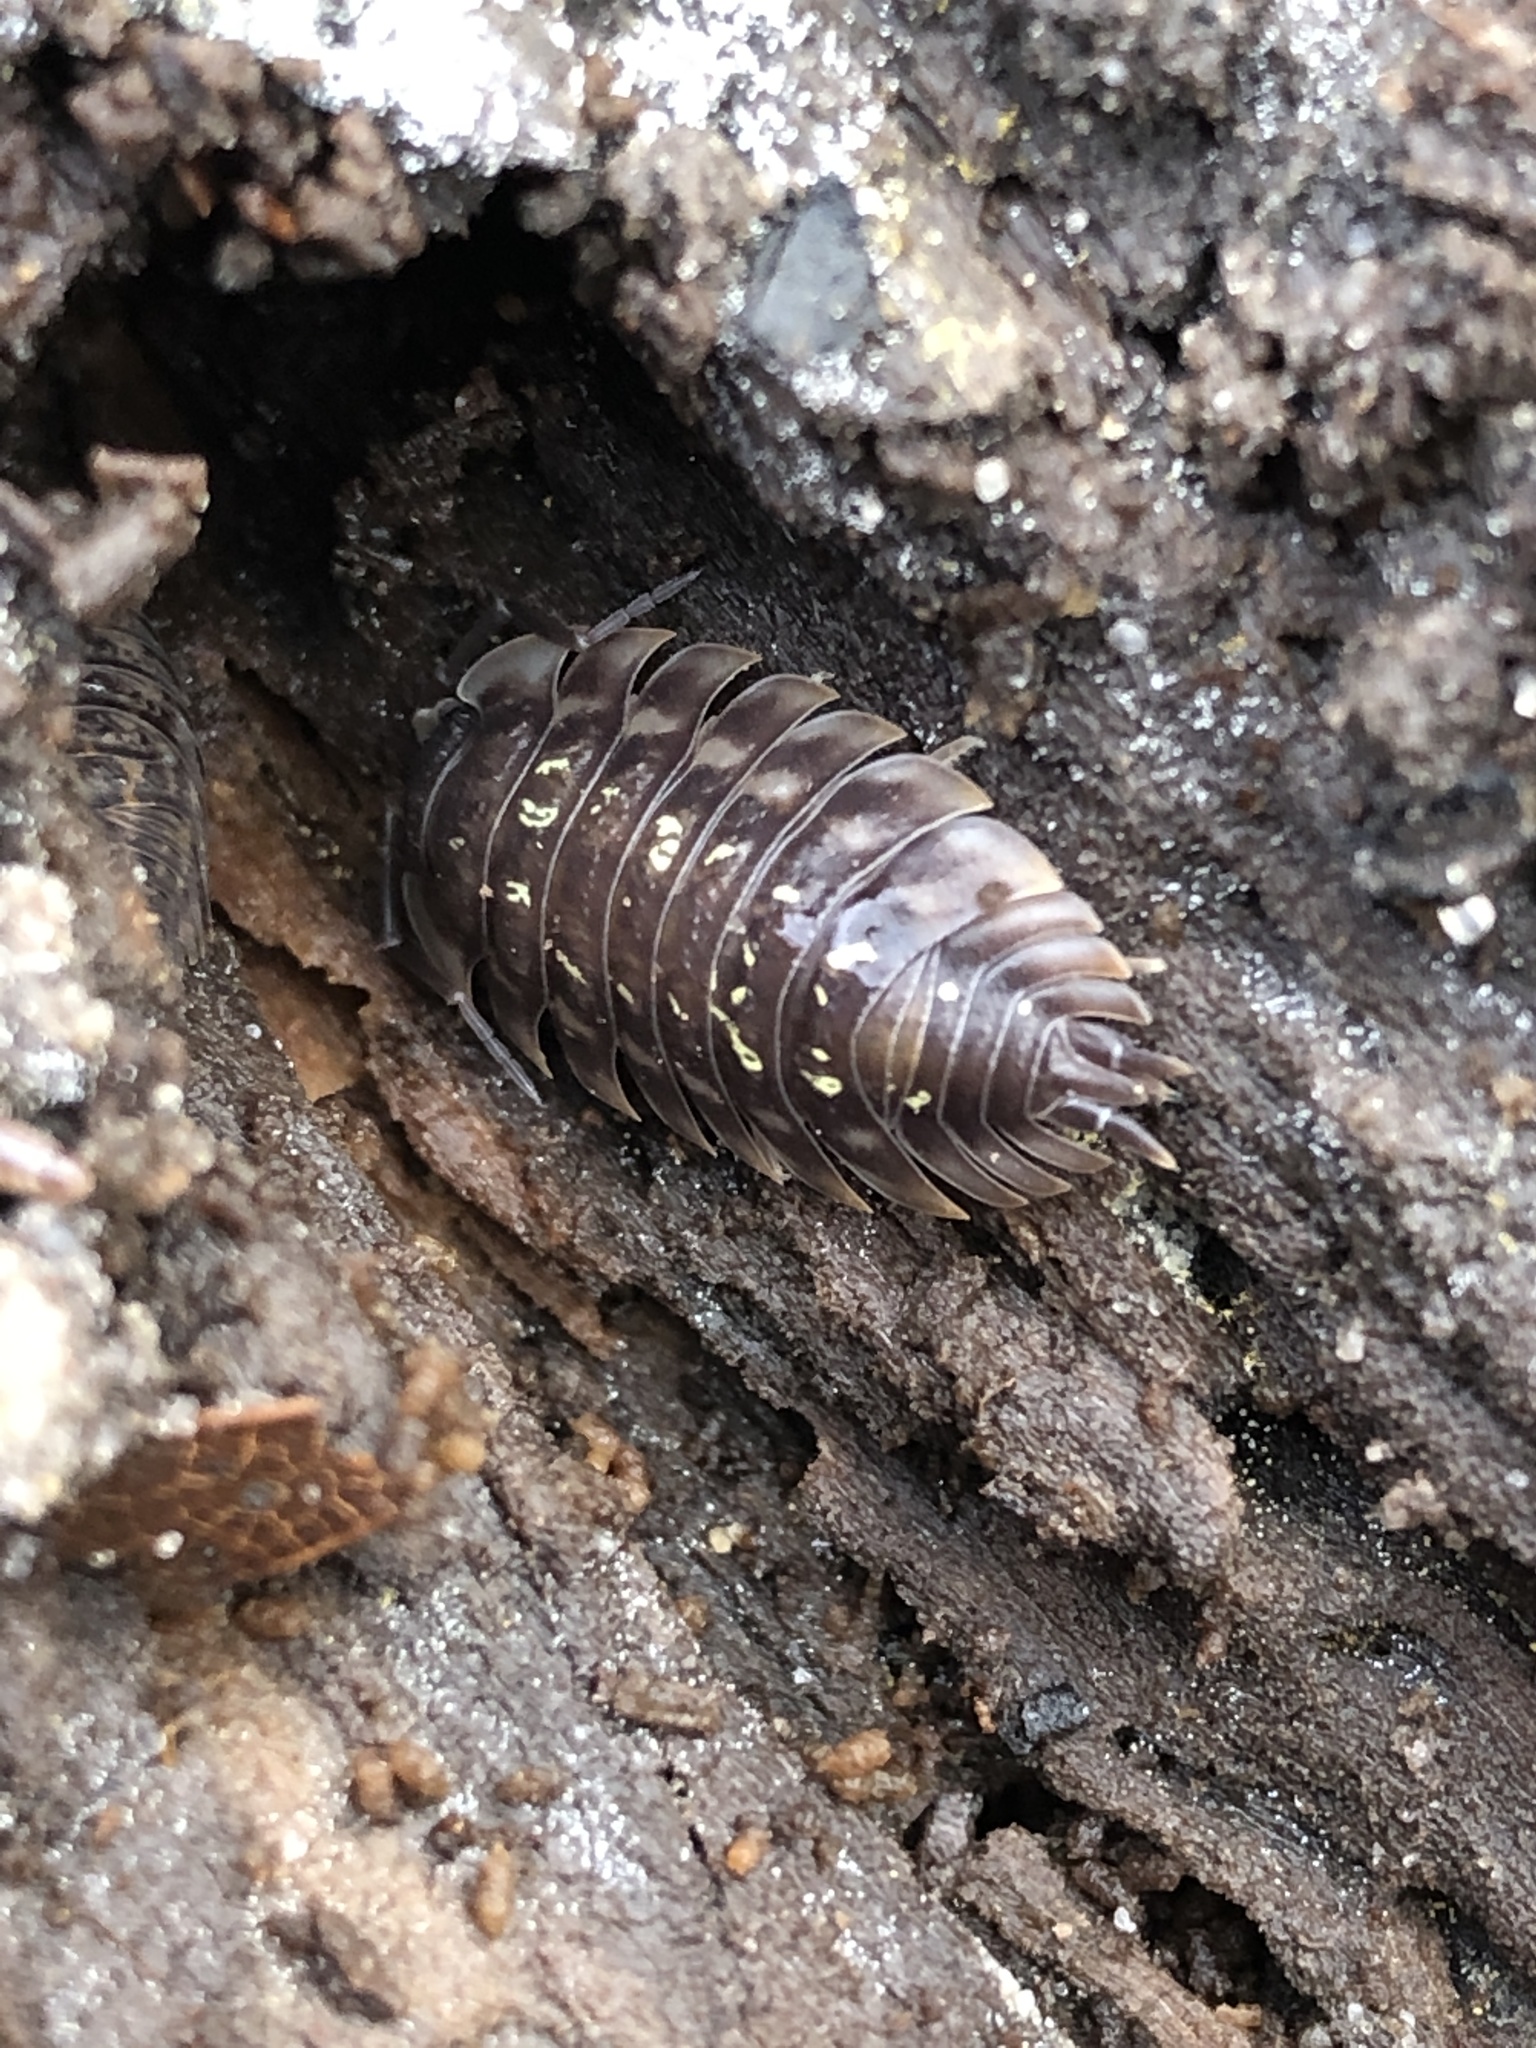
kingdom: Animalia
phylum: Arthropoda
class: Malacostraca
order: Isopoda
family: Oniscidae
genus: Oniscus
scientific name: Oniscus asellus
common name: Common shiny woodlouse
